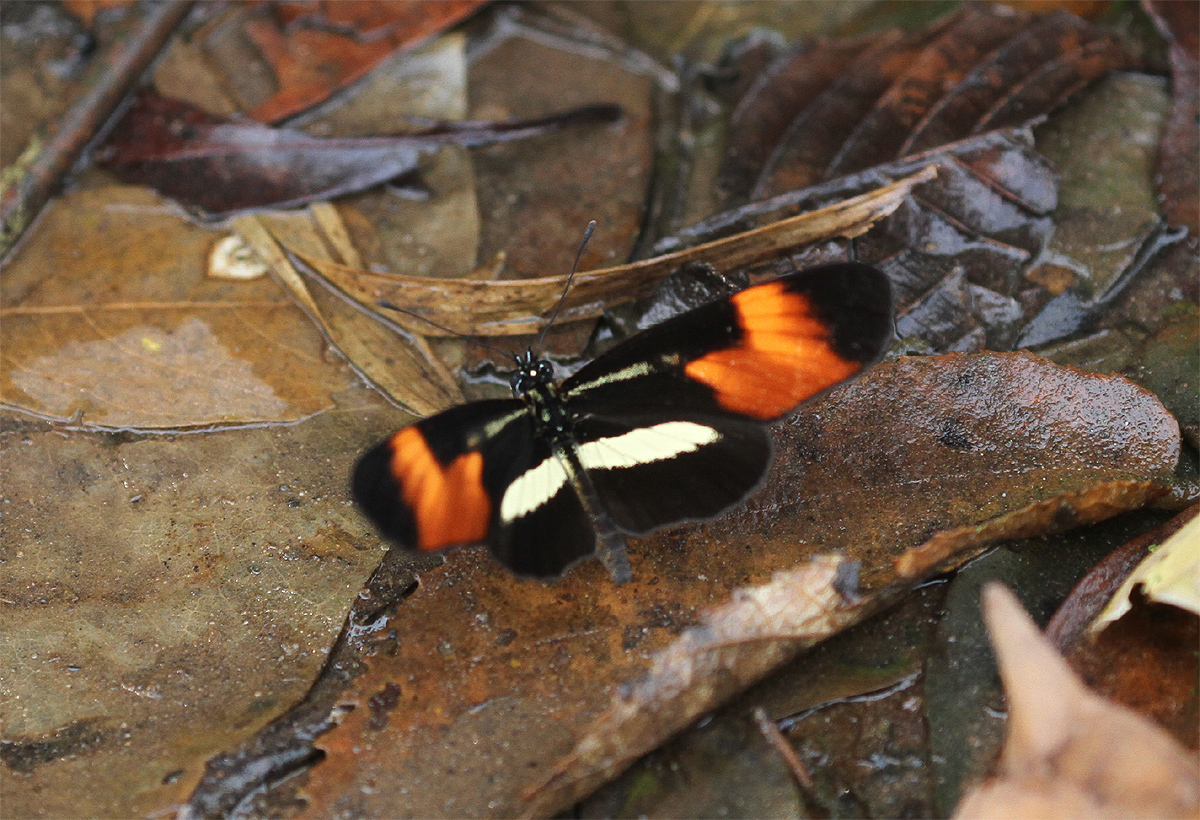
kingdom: Animalia
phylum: Arthropoda
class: Insecta
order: Lepidoptera
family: Nymphalidae
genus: Eresia
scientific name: Eresia lansdorfi
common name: Lansdorf's crescent
